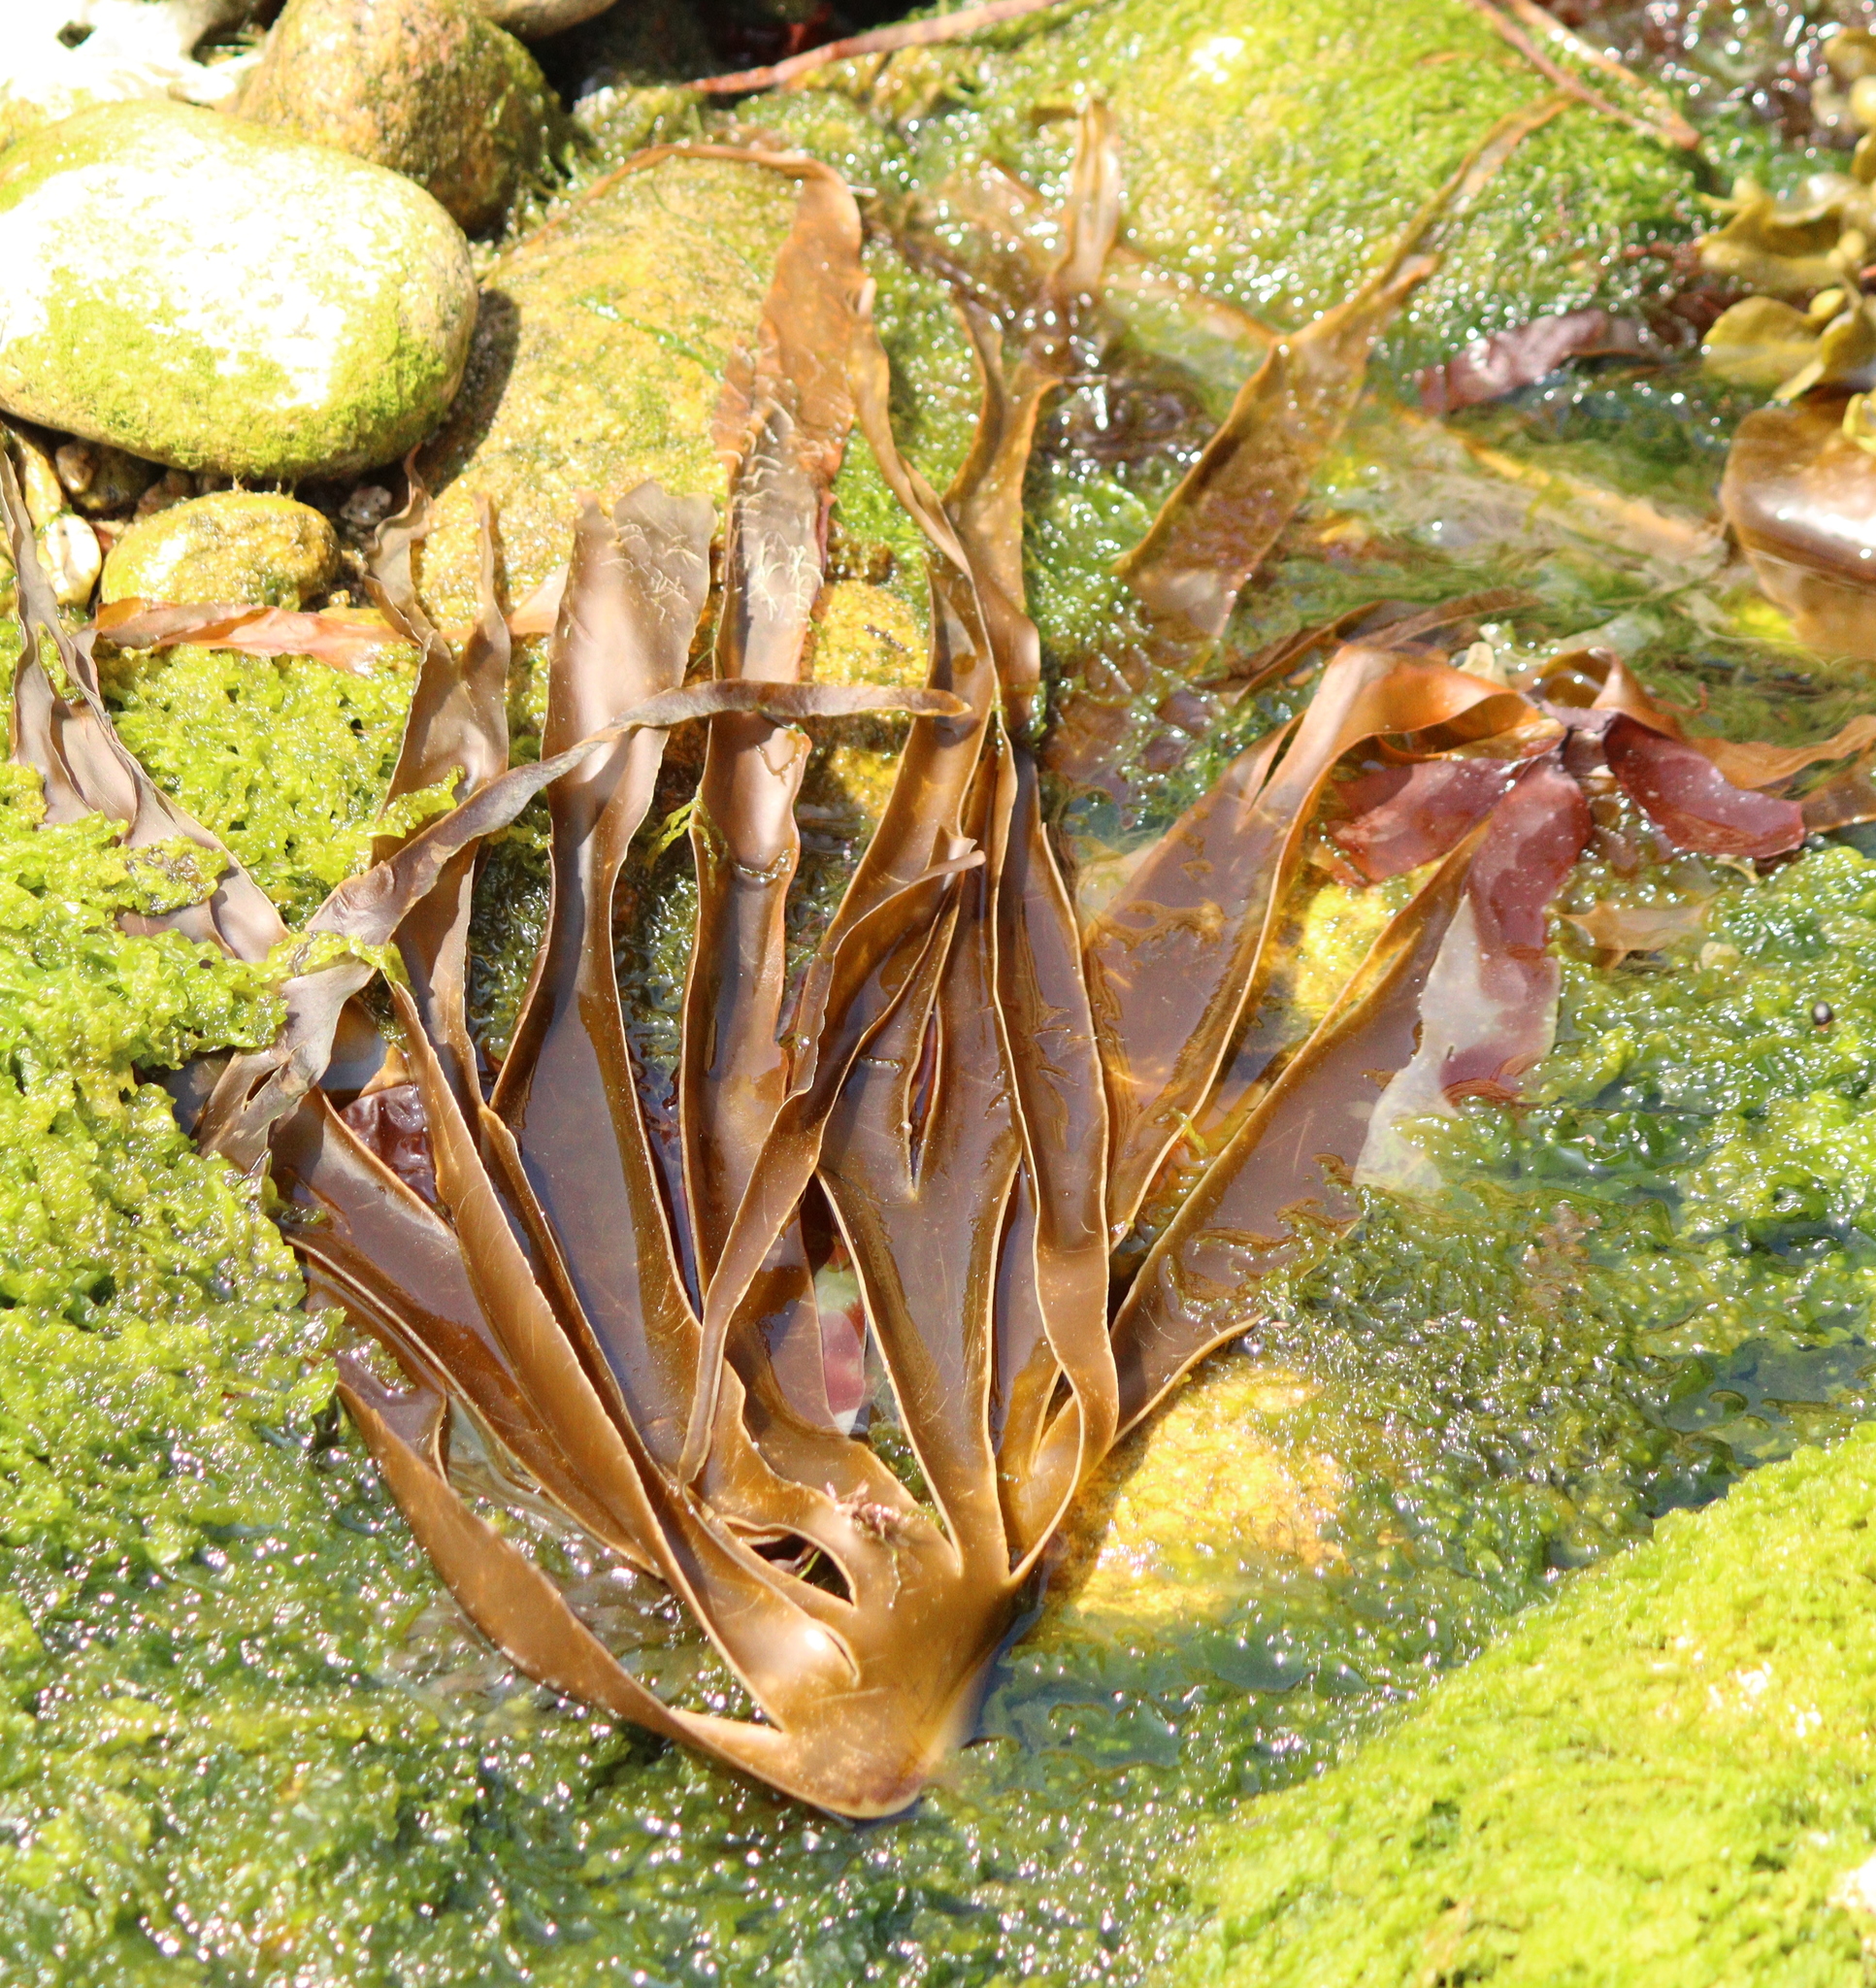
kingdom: Chromista
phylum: Ochrophyta
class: Phaeophyceae
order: Laminariales
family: Laminariaceae
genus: Laminaria
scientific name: Laminaria digitata
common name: Oarweed
